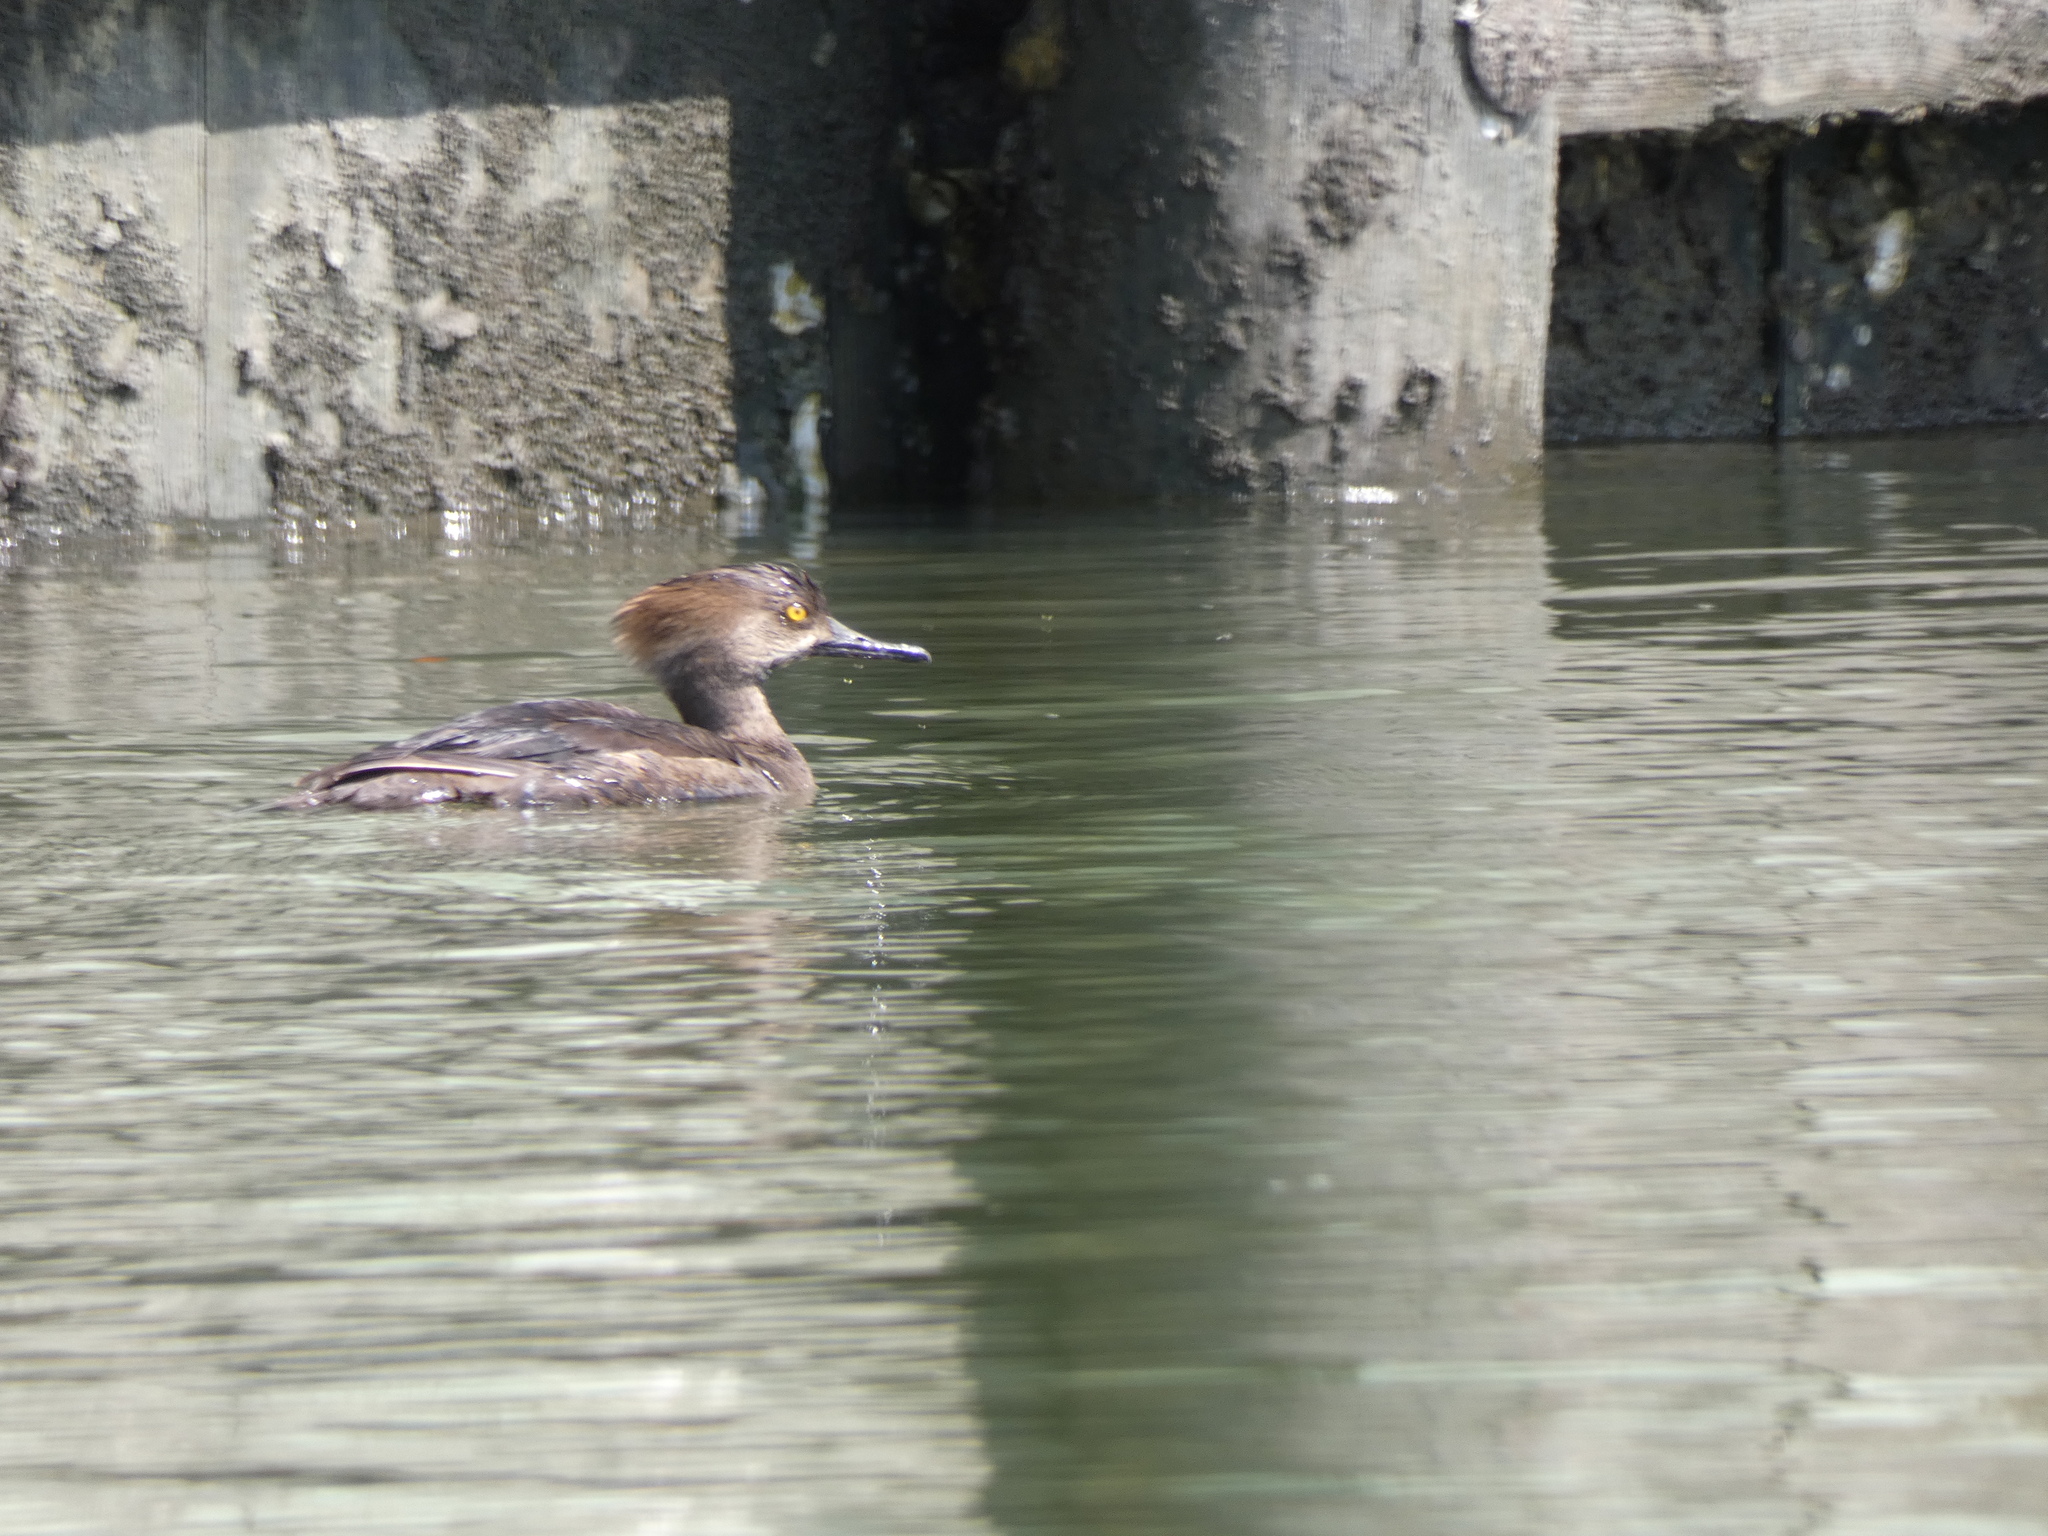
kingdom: Animalia
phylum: Chordata
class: Aves
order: Anseriformes
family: Anatidae
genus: Lophodytes
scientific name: Lophodytes cucullatus
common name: Hooded merganser
